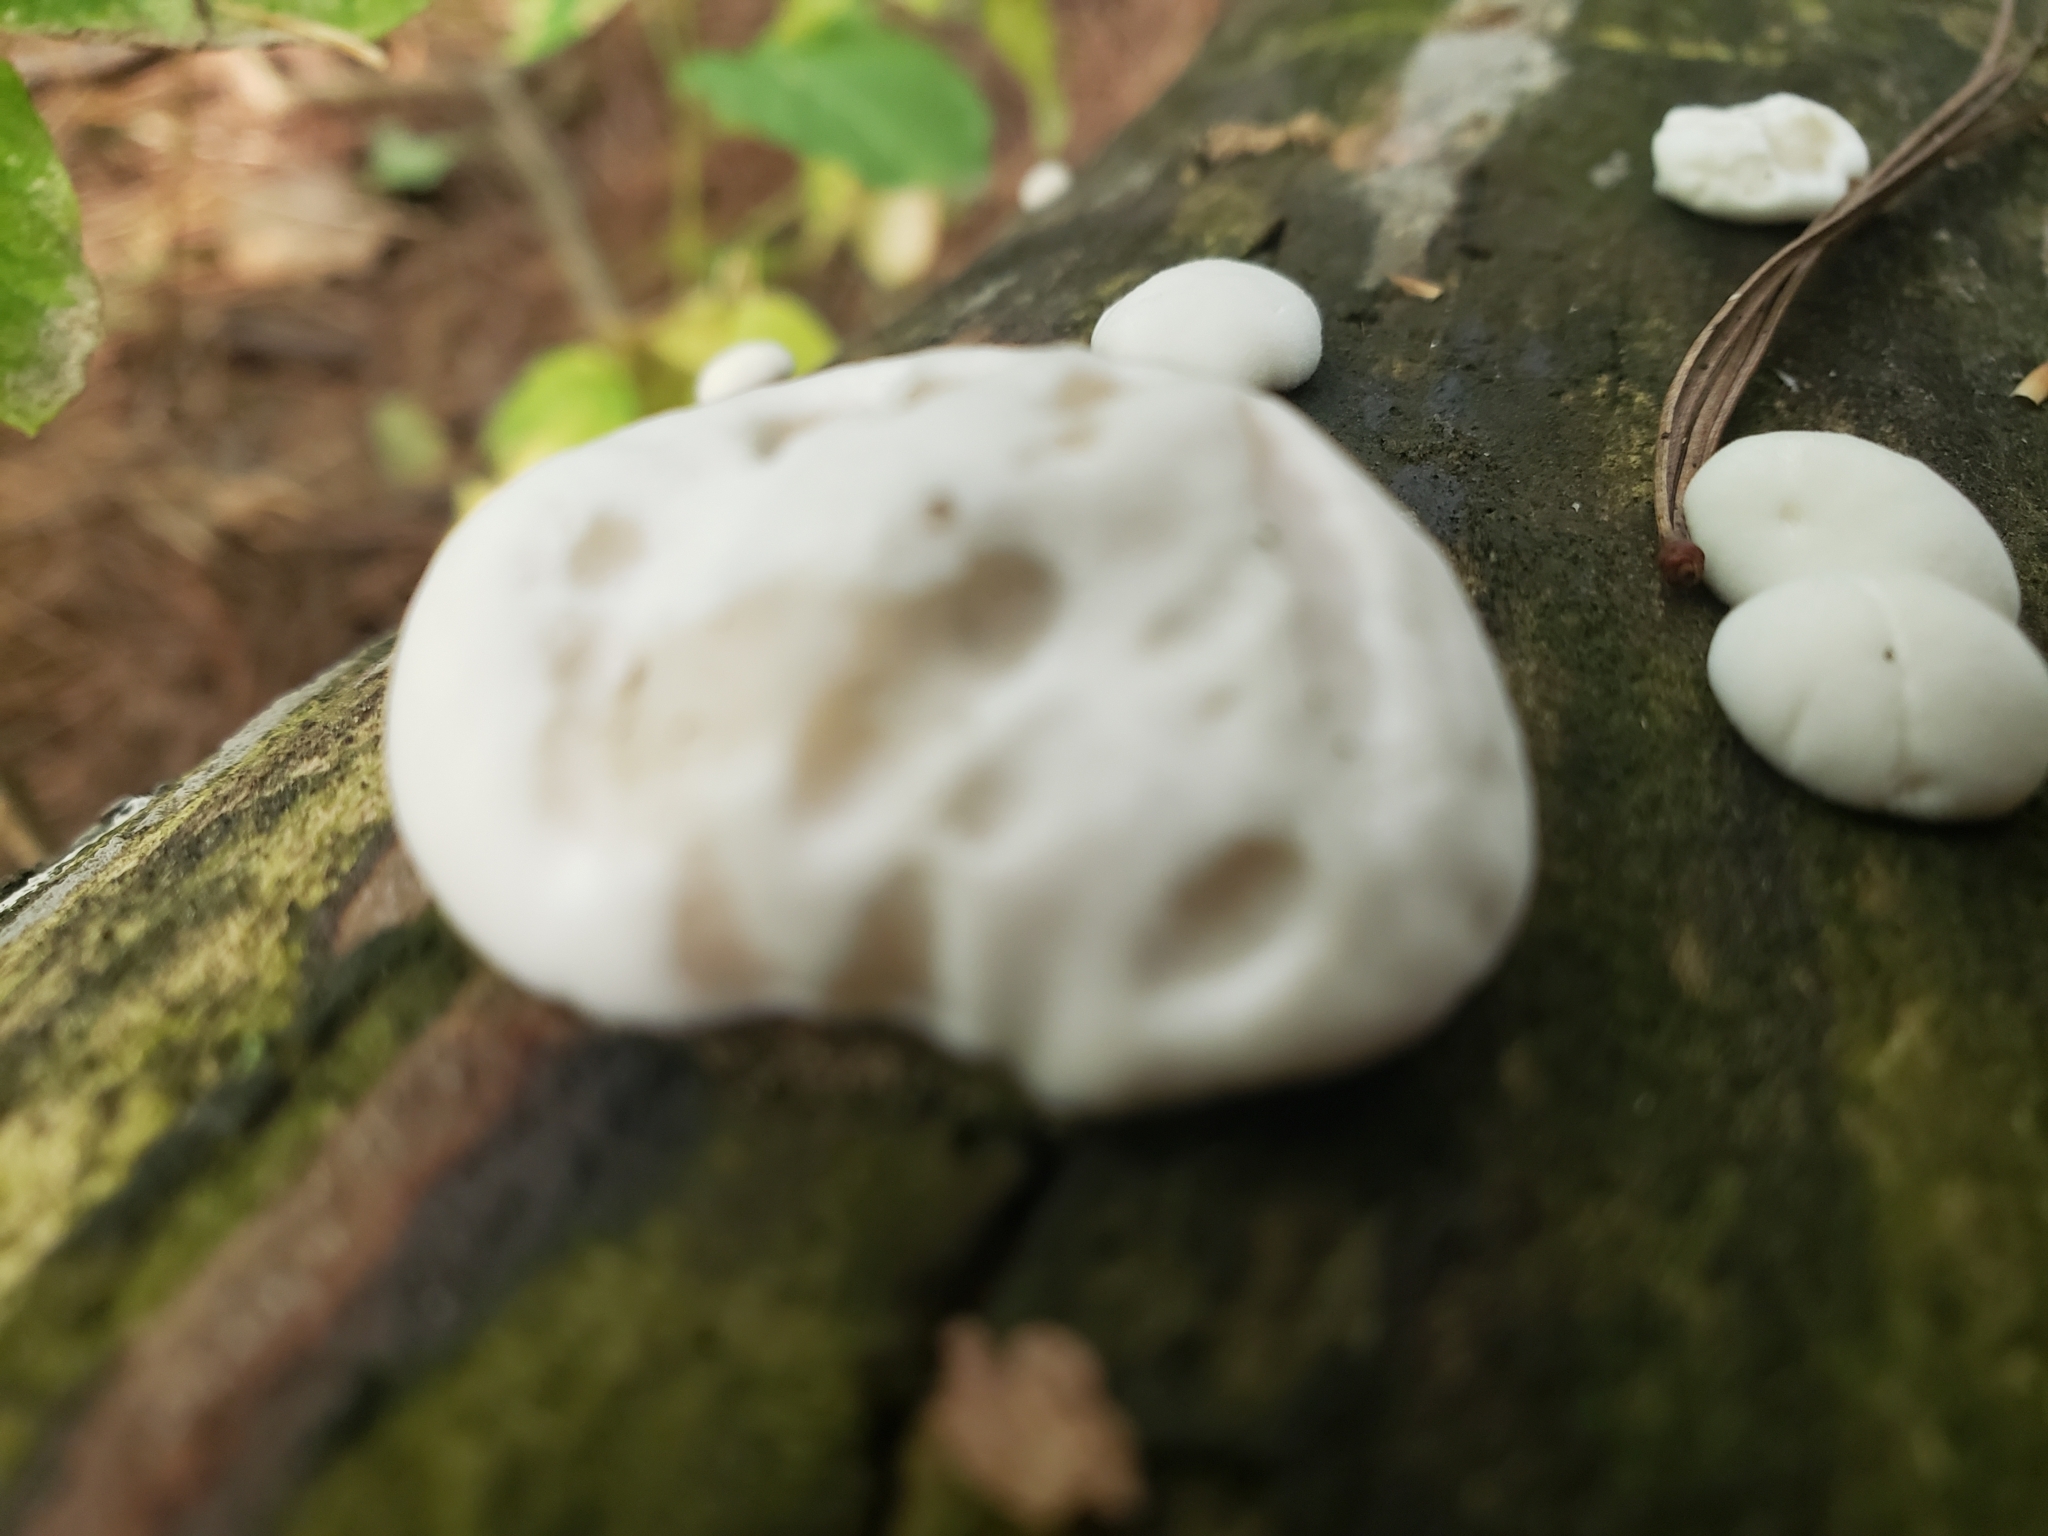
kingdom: Fungi
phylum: Basidiomycota
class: Agaricomycetes
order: Polyporales
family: Incrustoporiaceae
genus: Tyromyces
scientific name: Tyromyces chioneus
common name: White cheese polypore
